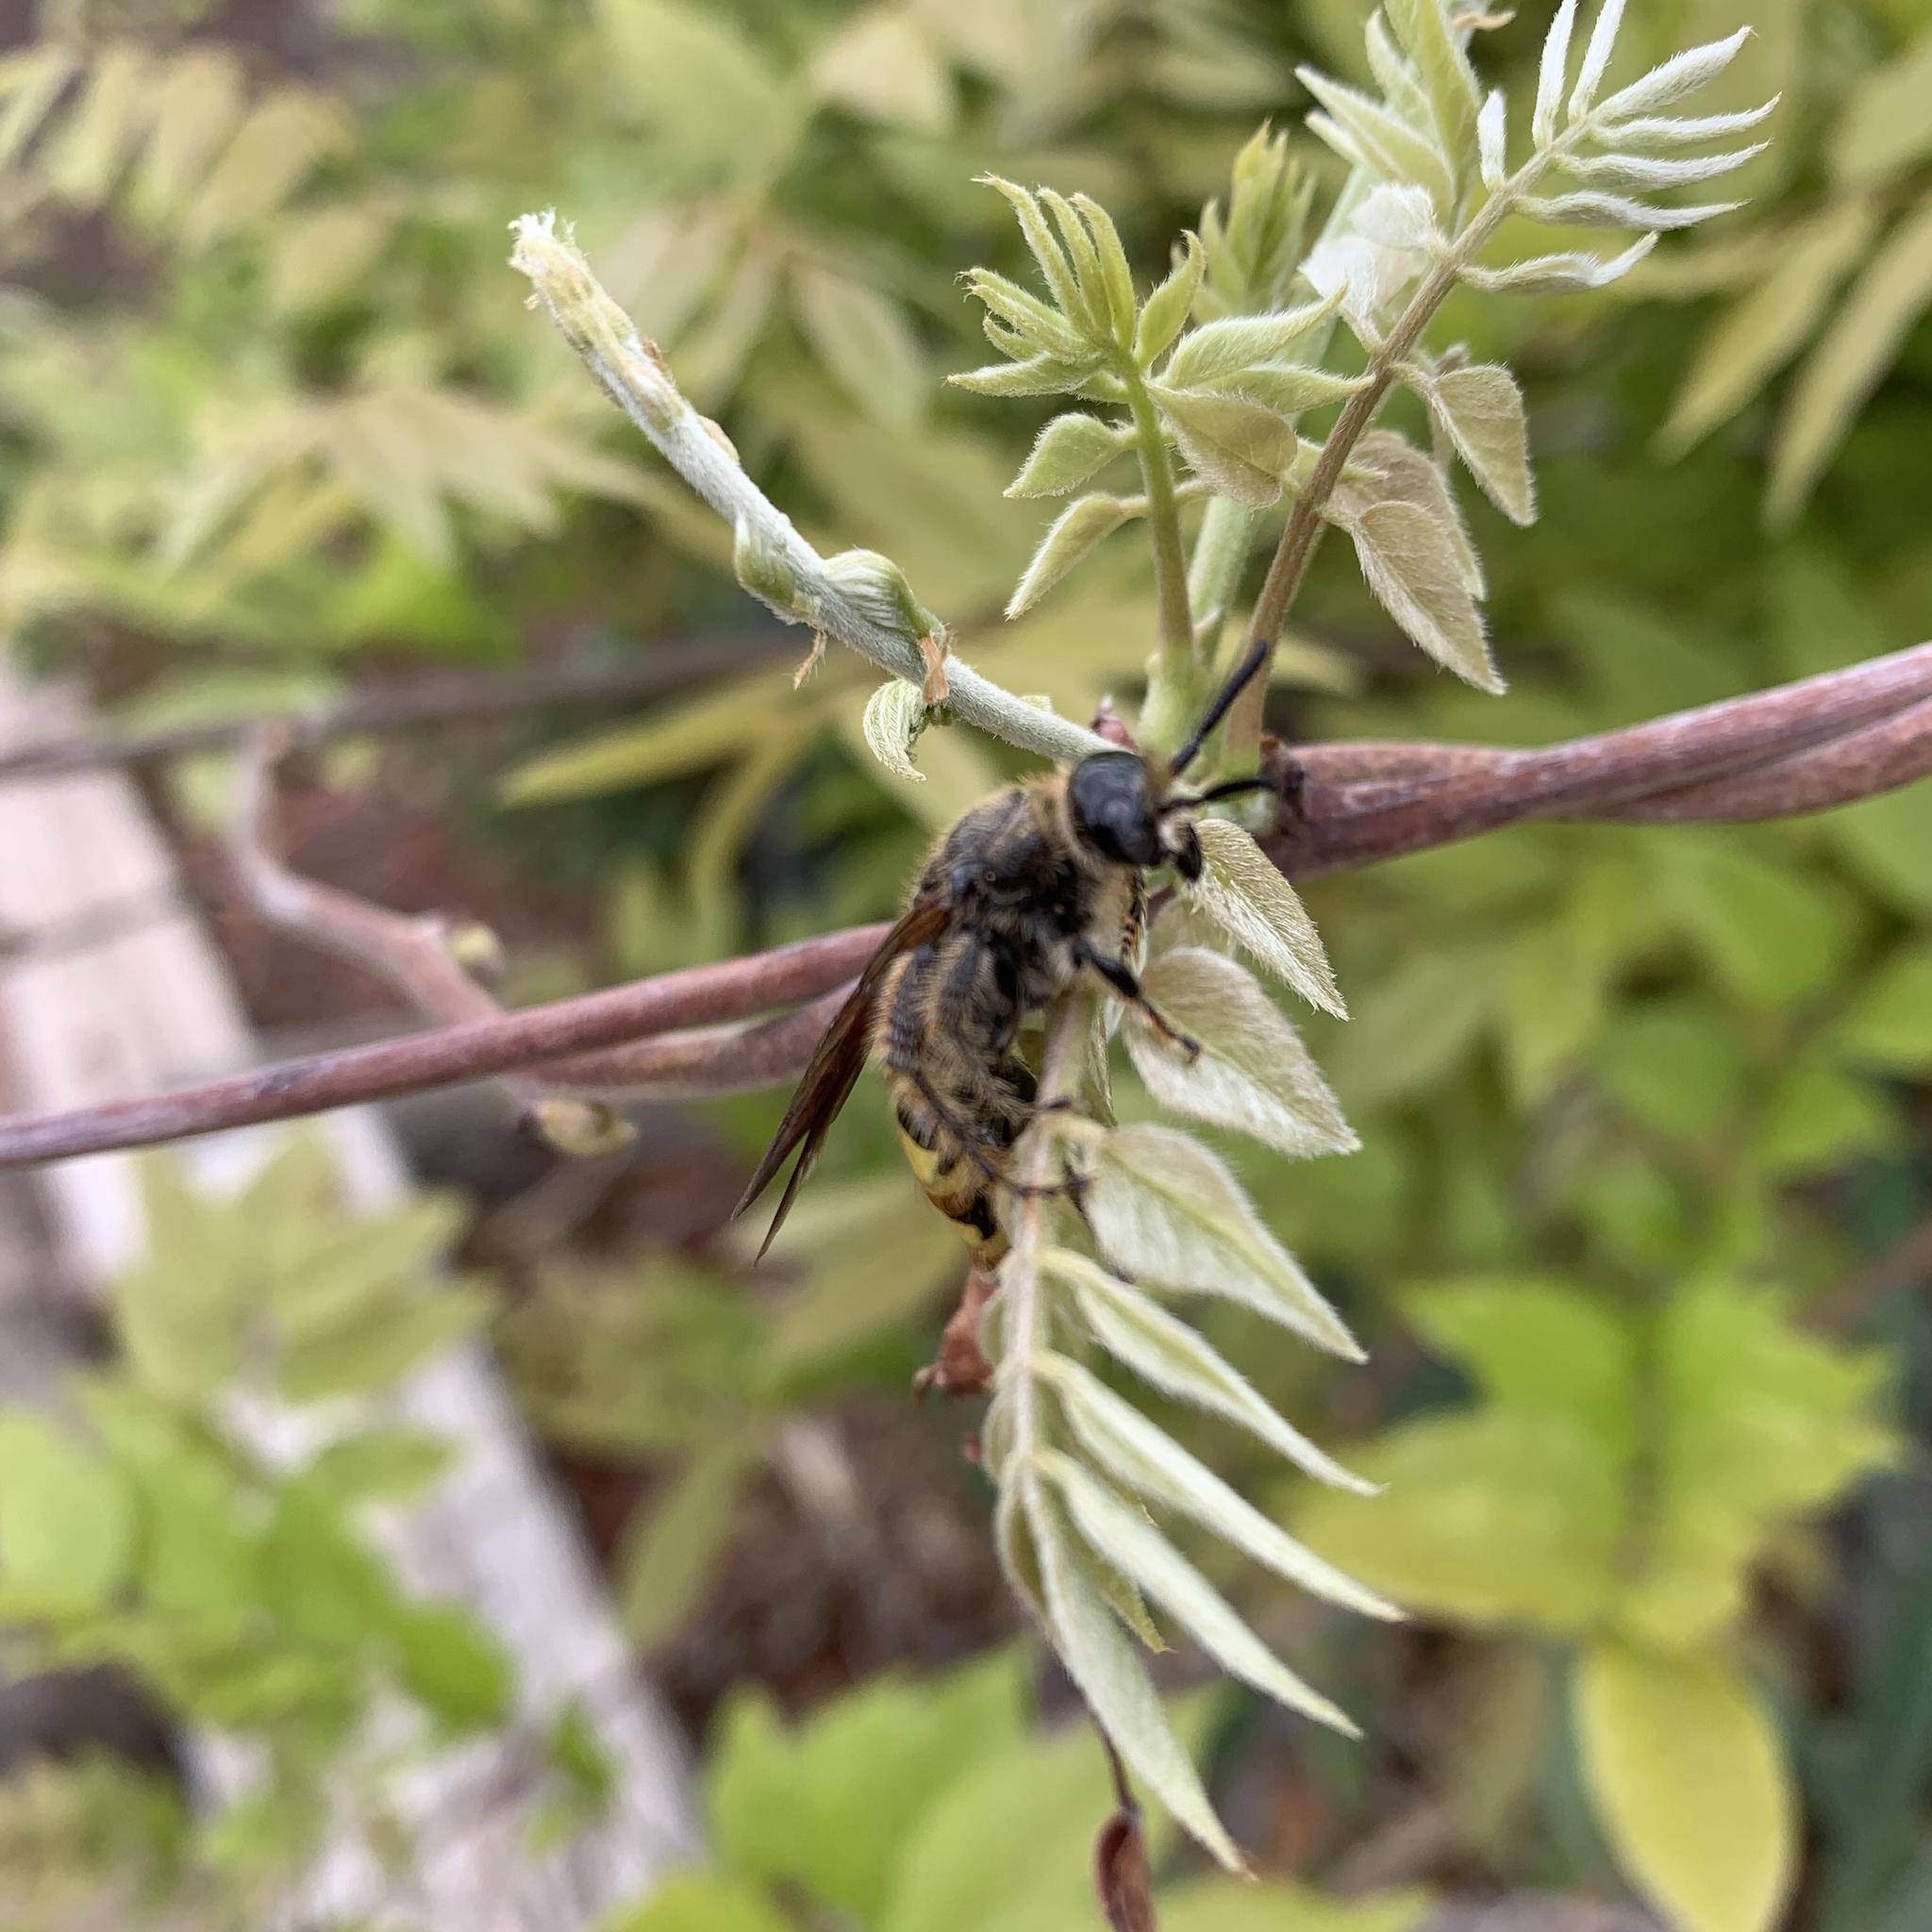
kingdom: Animalia
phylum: Arthropoda
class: Insecta
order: Hymenoptera
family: Scoliidae
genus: Dielis
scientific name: Dielis
